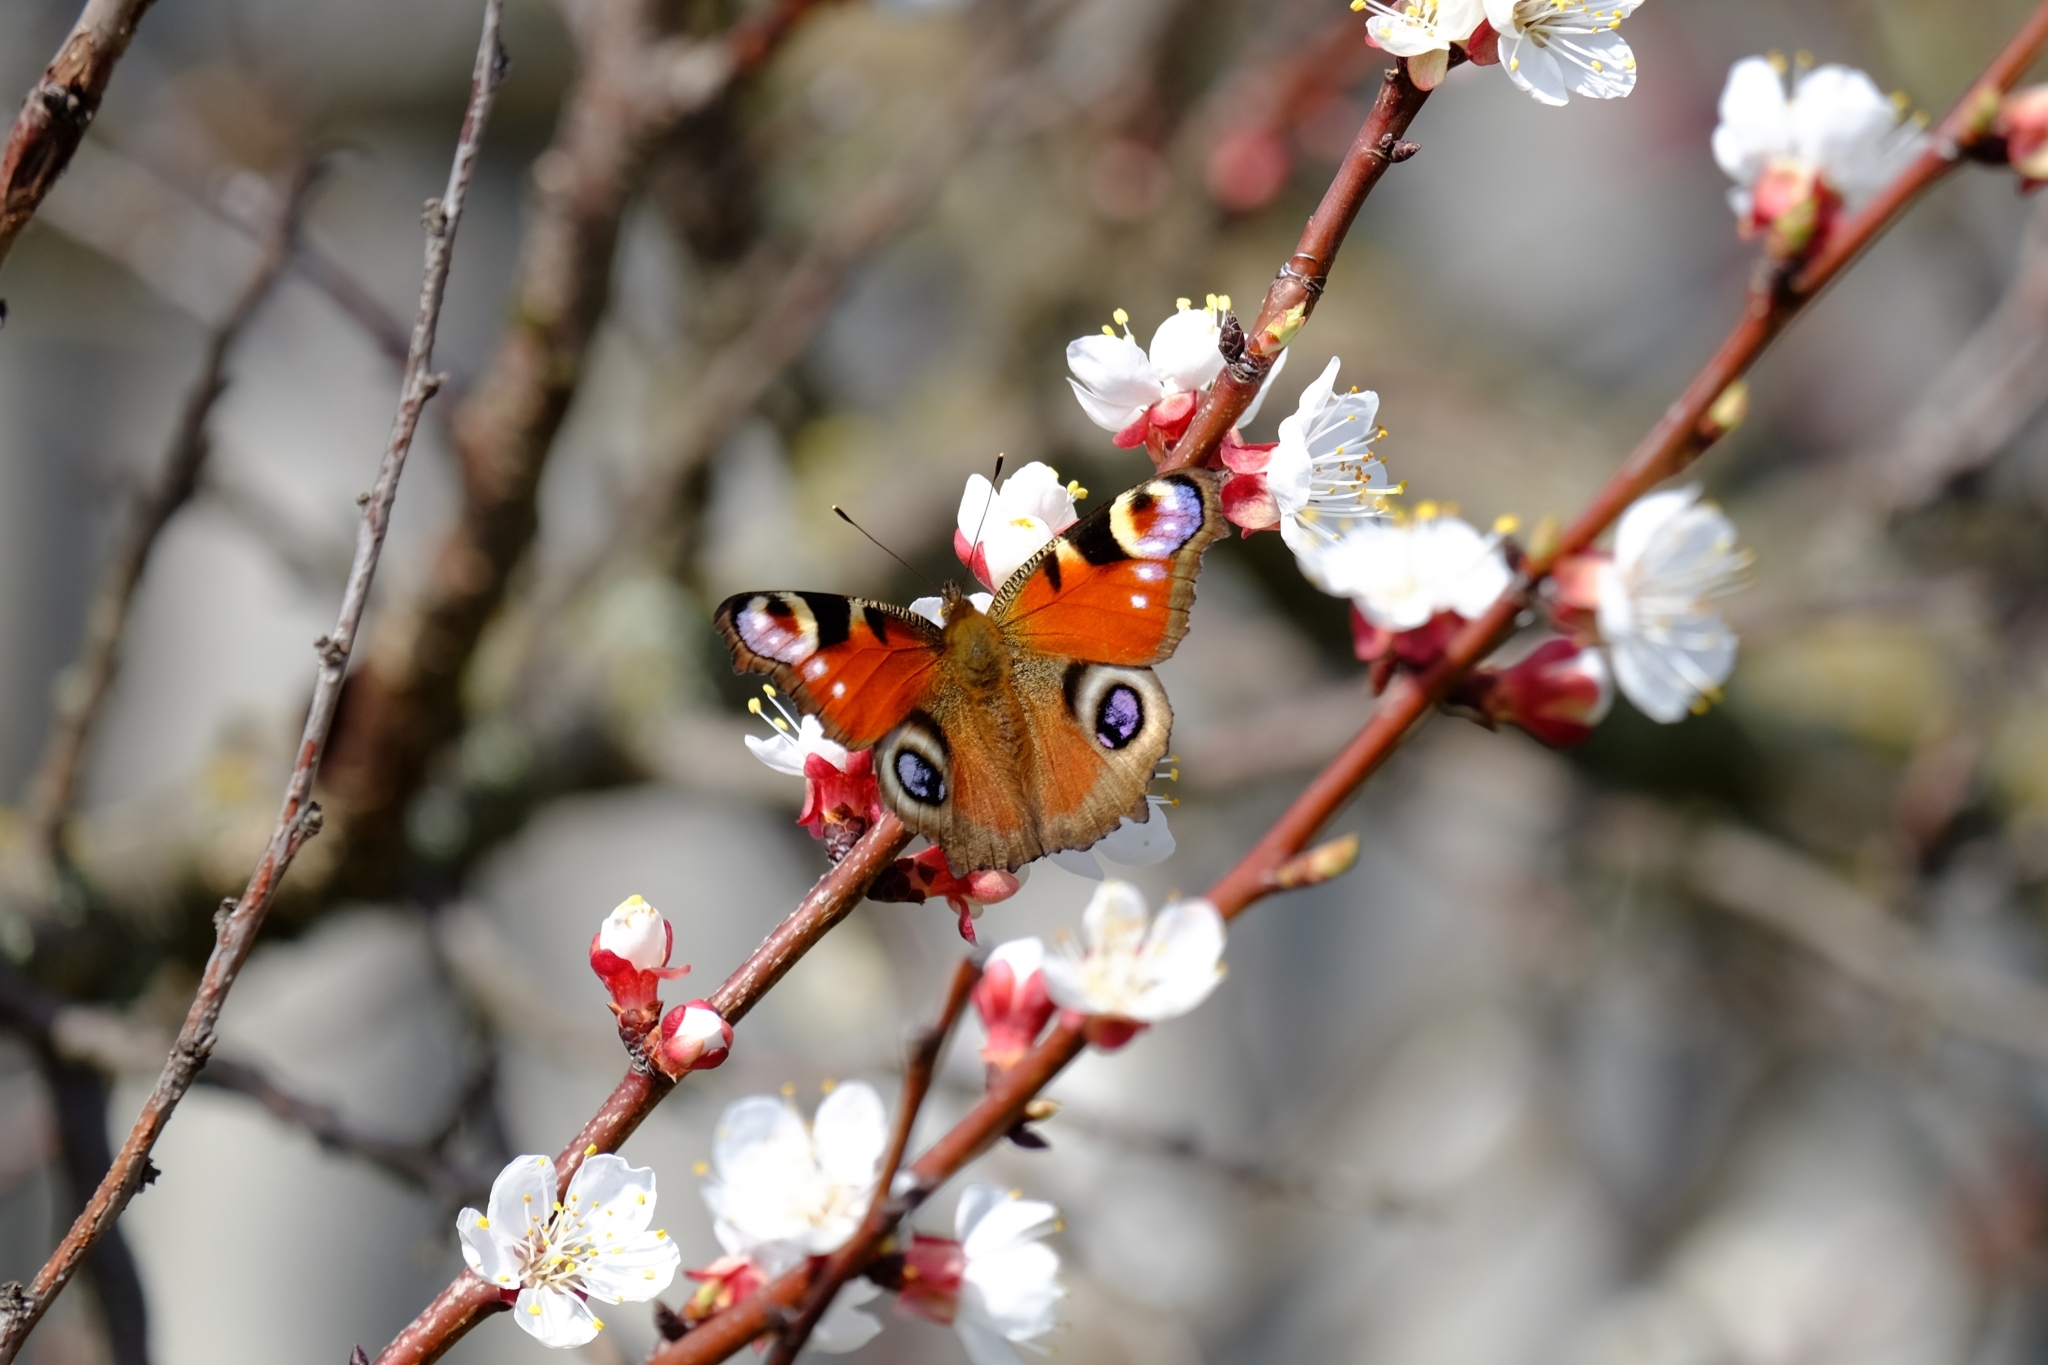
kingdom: Animalia
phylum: Arthropoda
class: Insecta
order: Lepidoptera
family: Nymphalidae
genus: Aglais
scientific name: Aglais io
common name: Peacock
